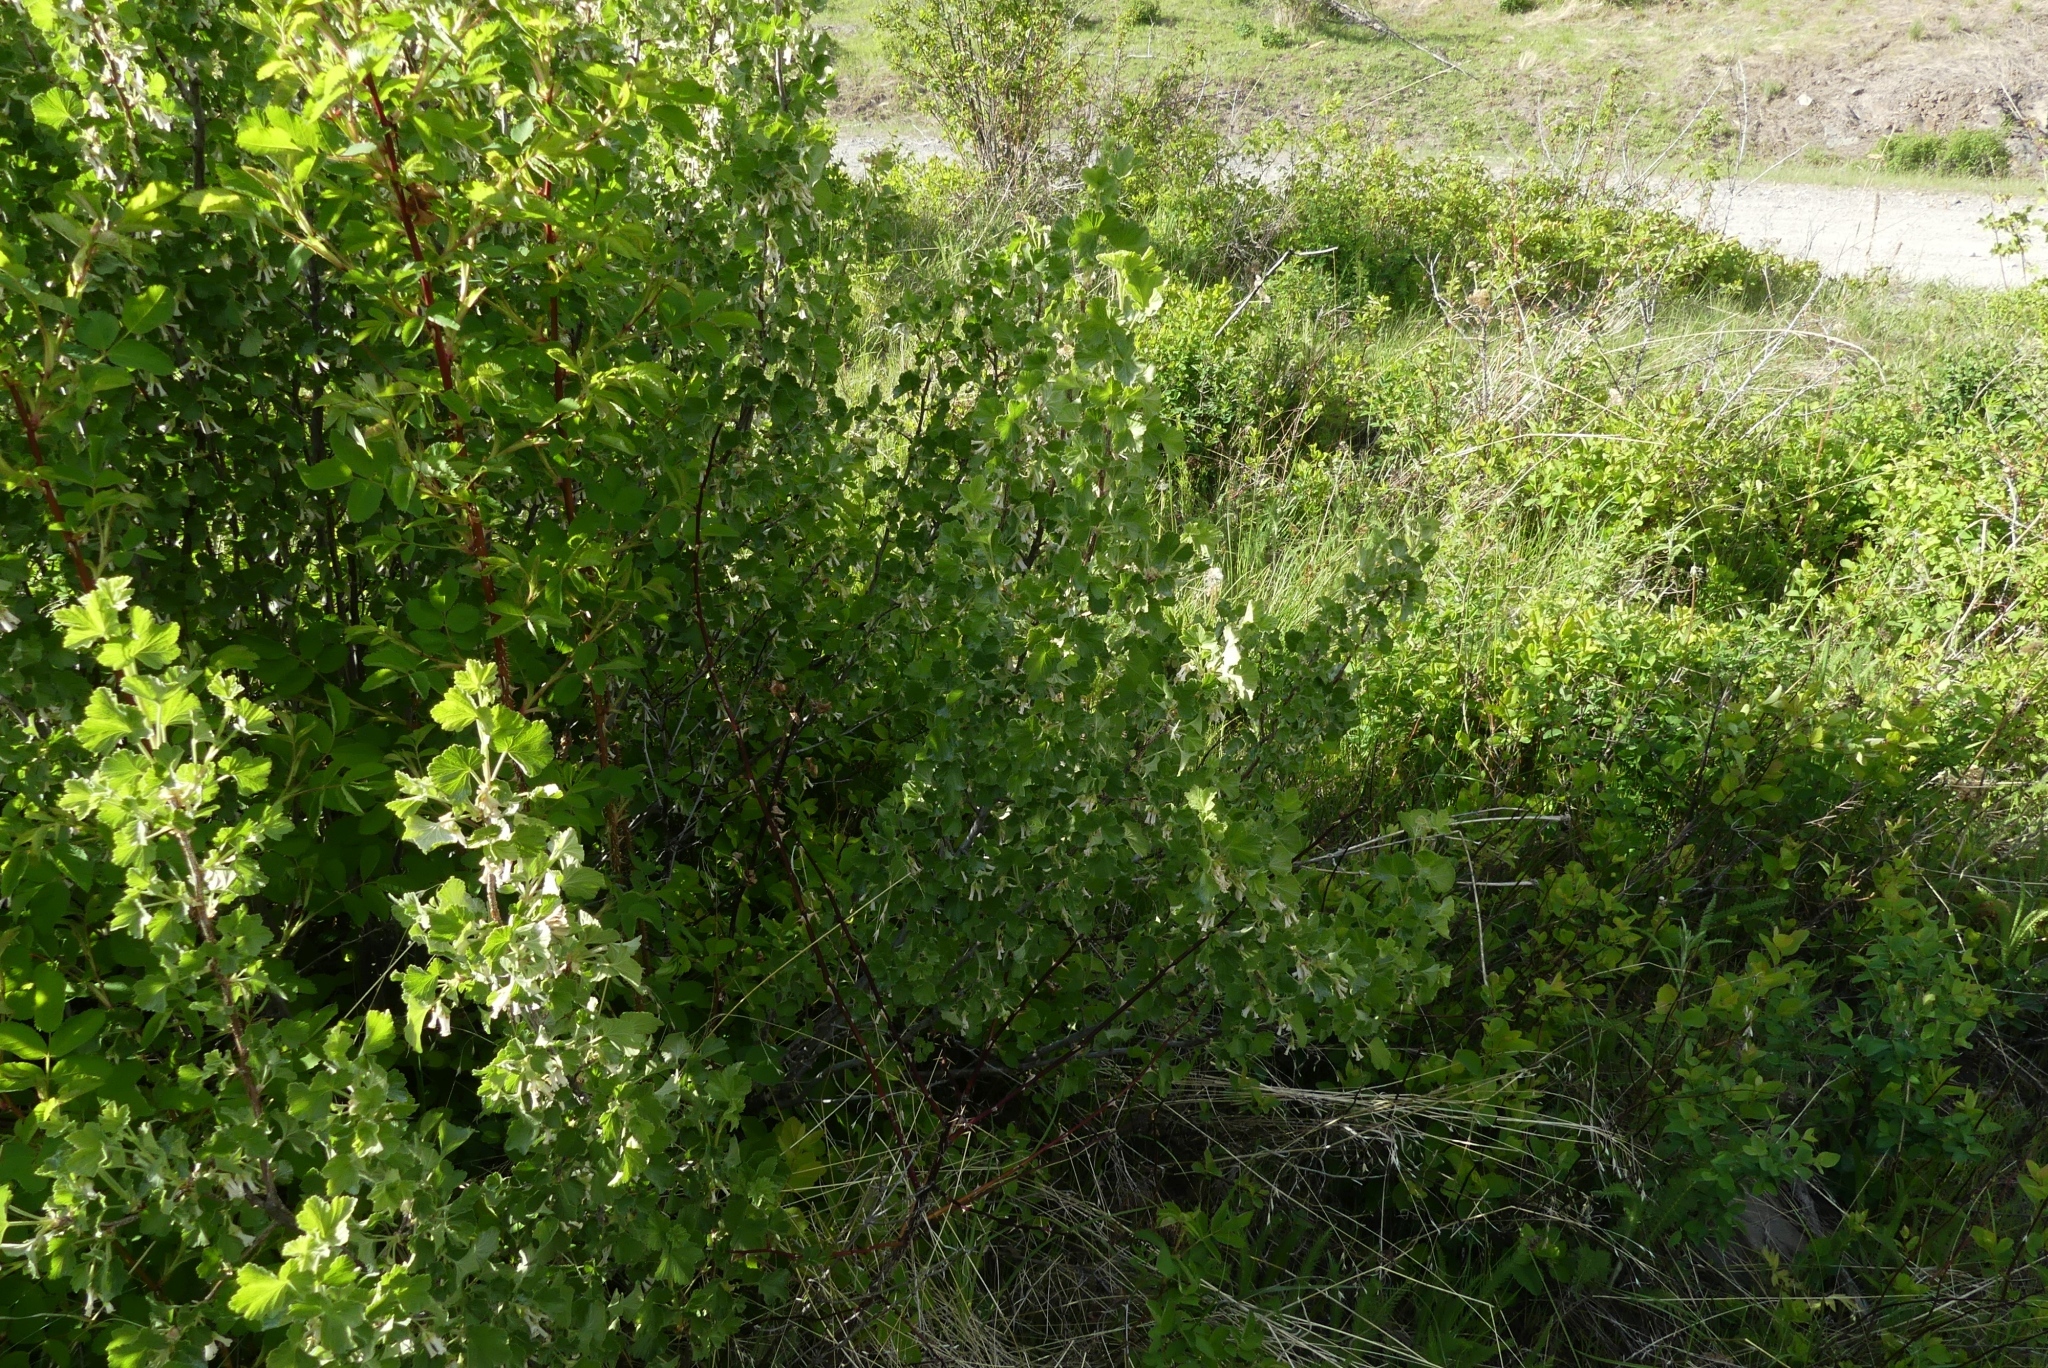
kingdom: Plantae
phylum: Tracheophyta
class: Magnoliopsida
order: Saxifragales
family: Grossulariaceae
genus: Ribes
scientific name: Ribes cereum
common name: Wax currant
